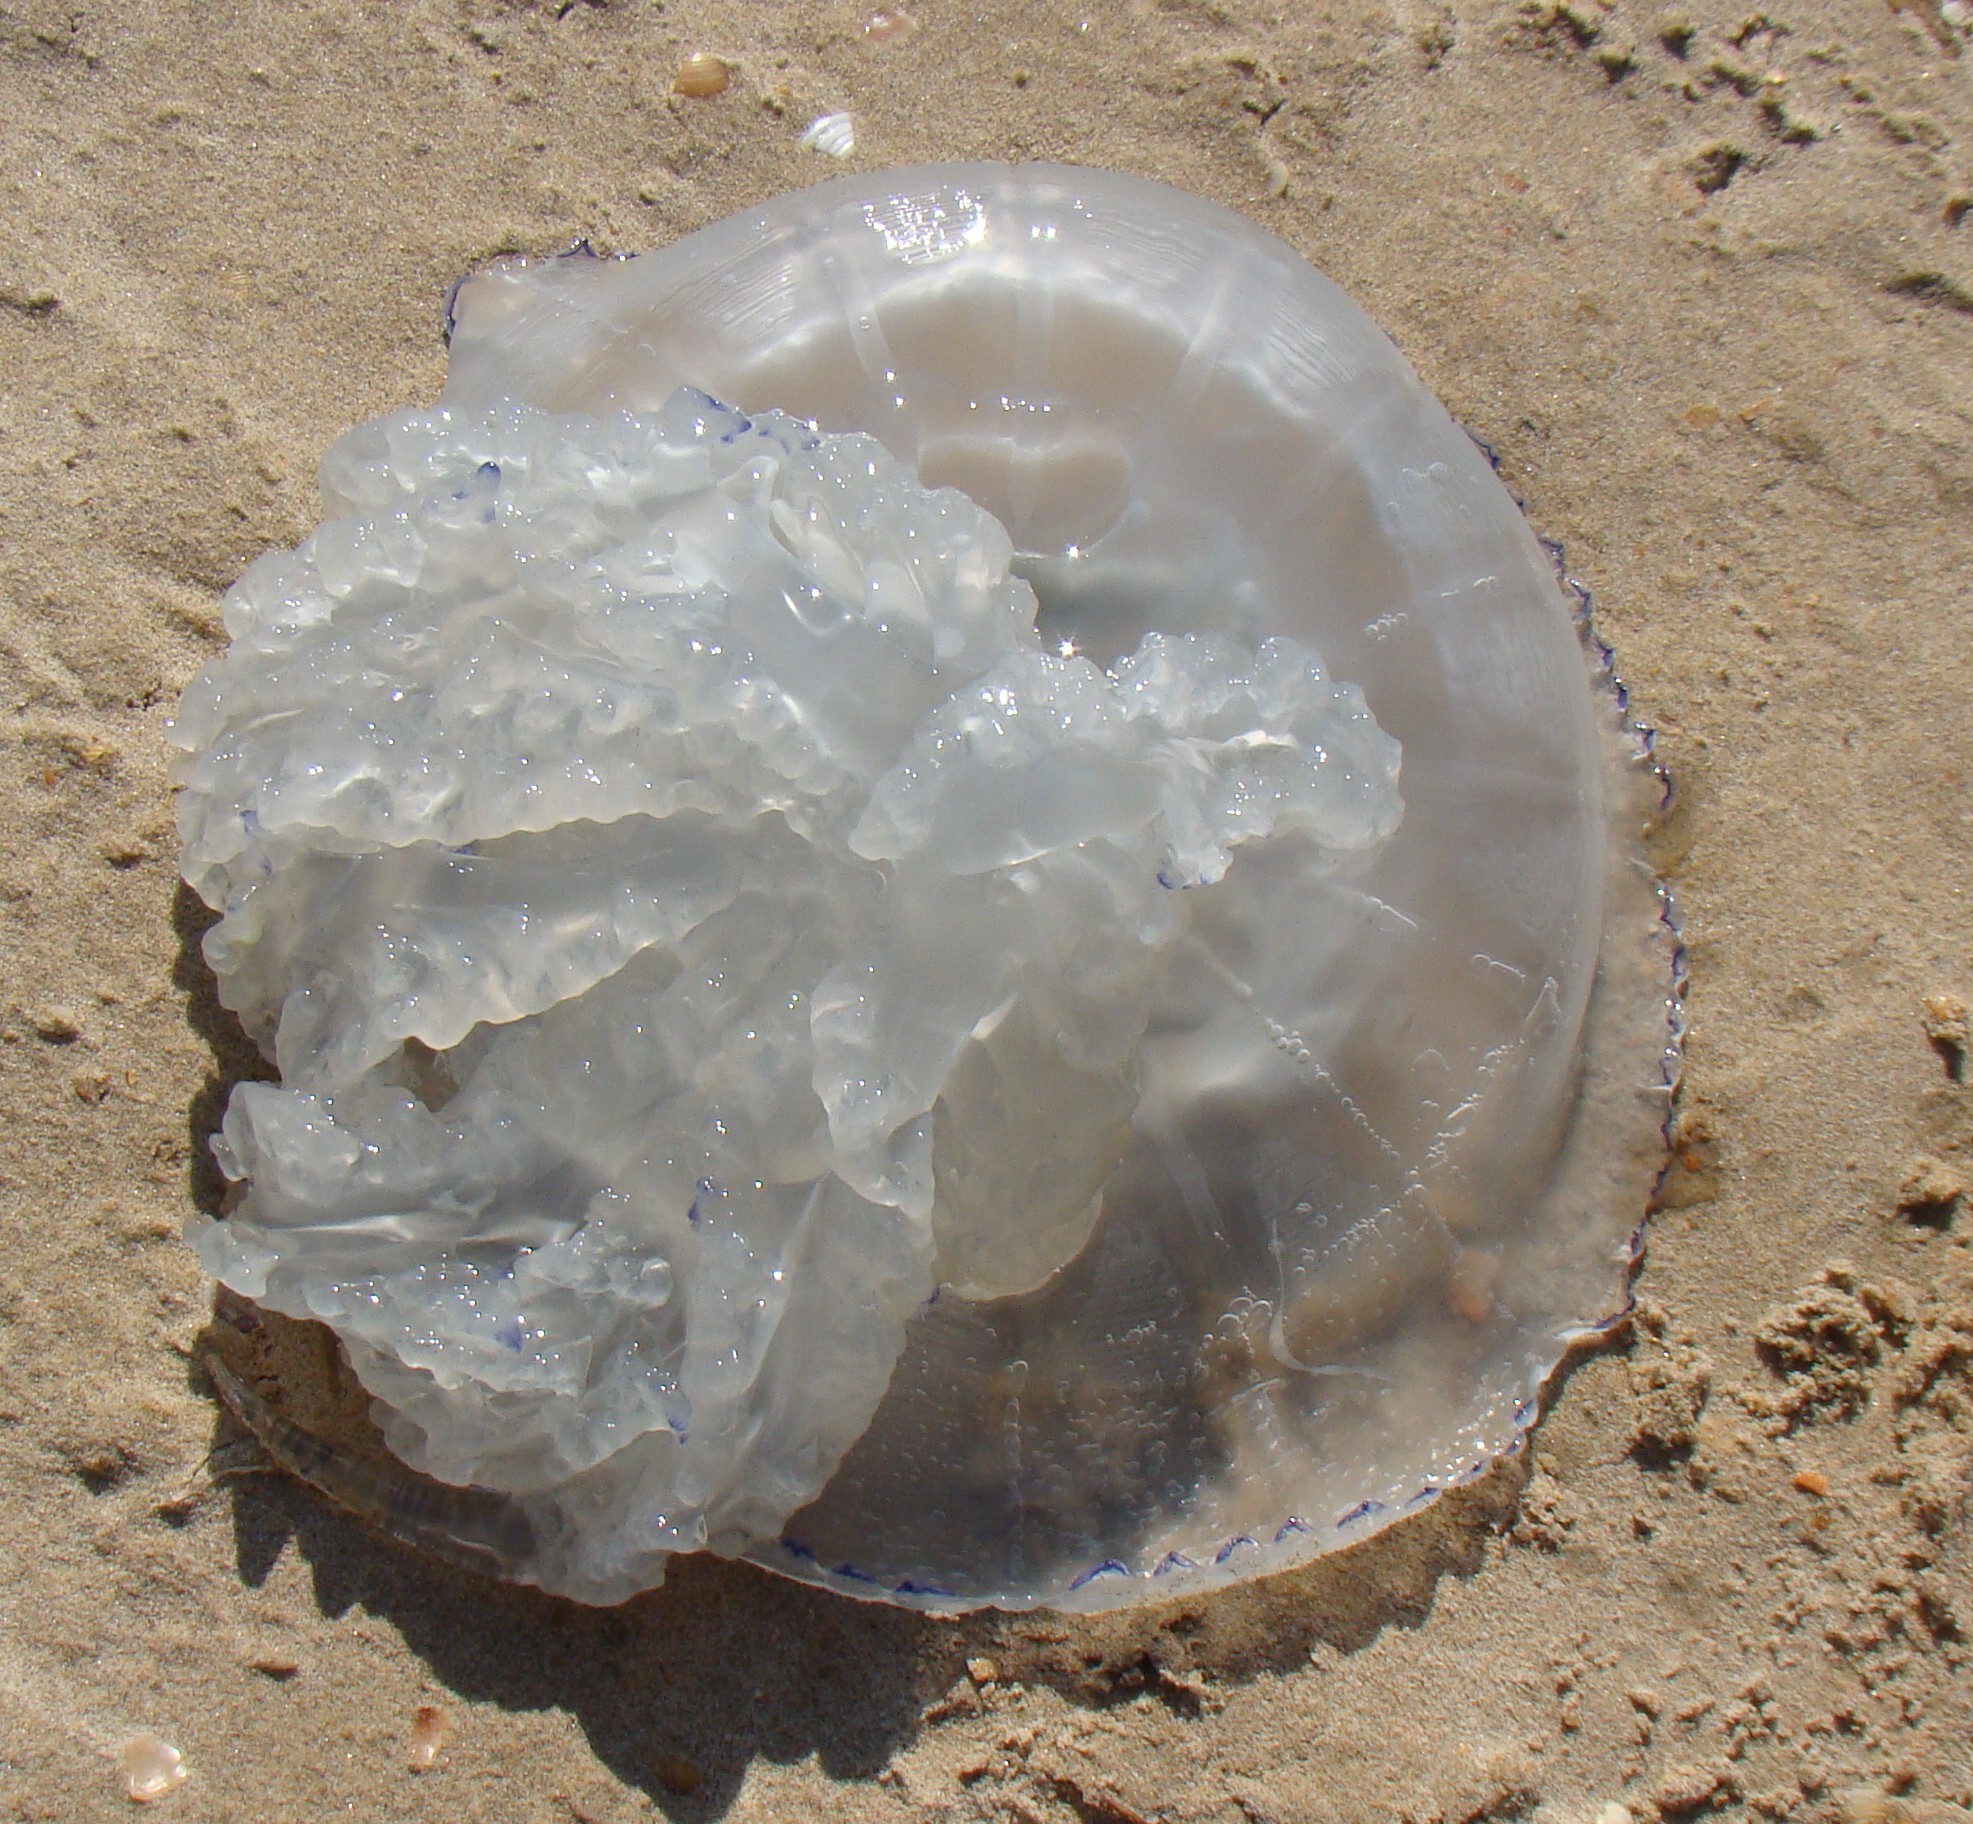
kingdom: Animalia
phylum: Cnidaria
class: Scyphozoa
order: Rhizostomeae
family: Rhizostomatidae
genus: Rhizostoma
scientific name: Rhizostoma pulmo
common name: Barrel jellyfish
